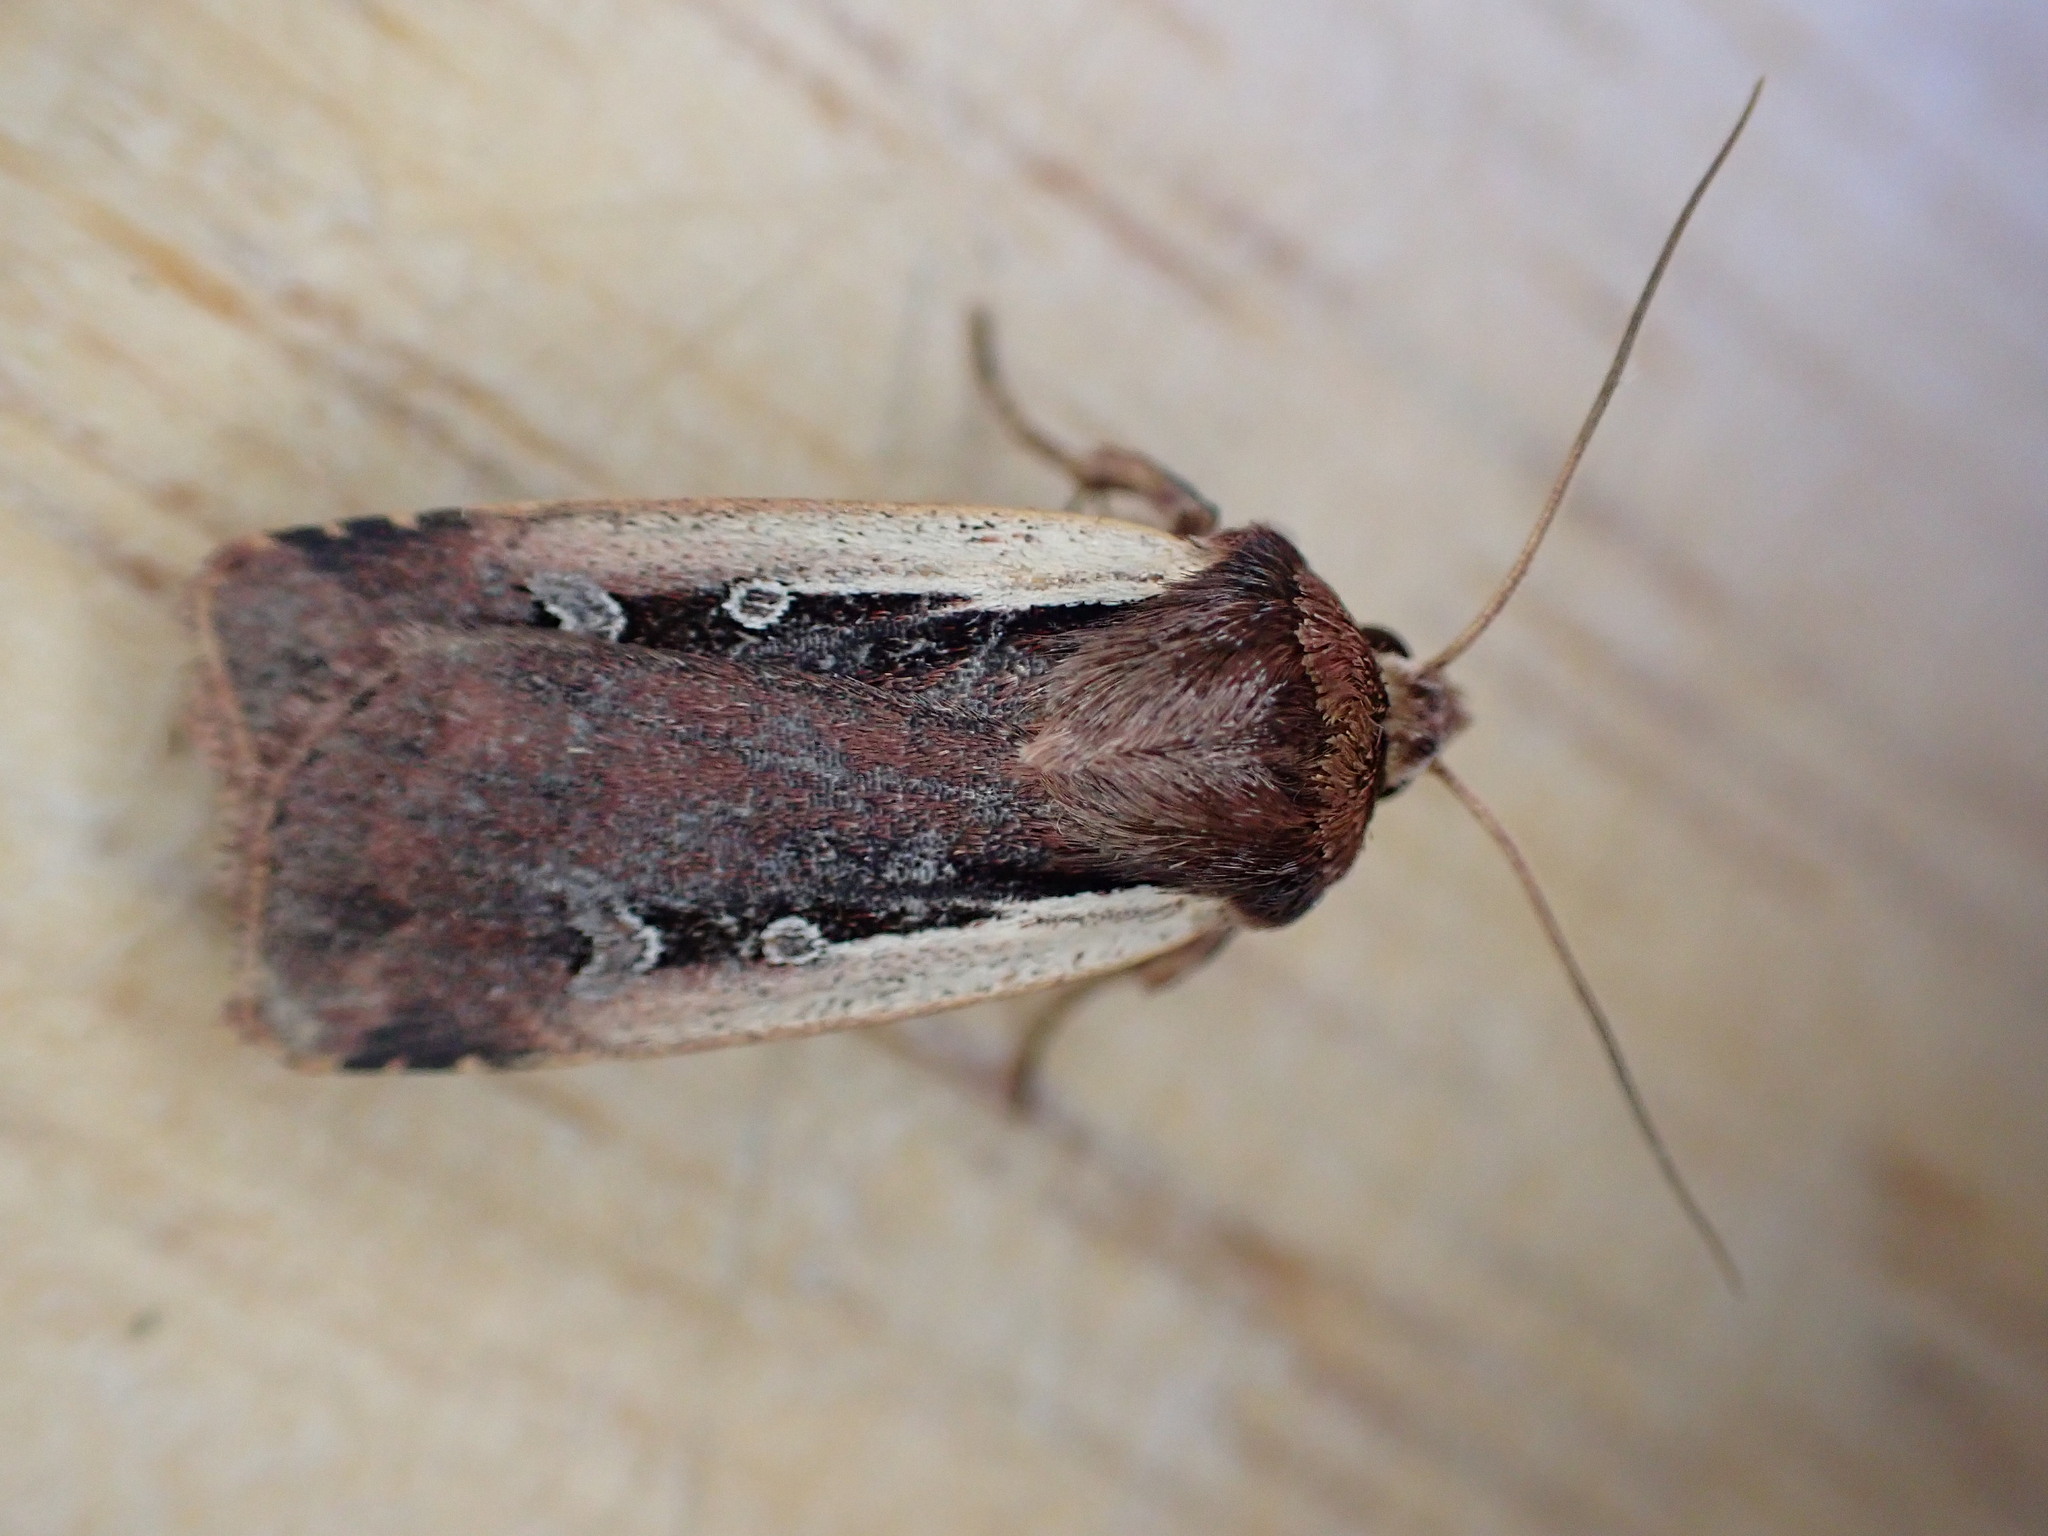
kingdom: Animalia
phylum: Arthropoda
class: Insecta
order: Lepidoptera
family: Noctuidae
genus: Ochropleura
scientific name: Ochropleura plecta
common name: Flame shoulder
